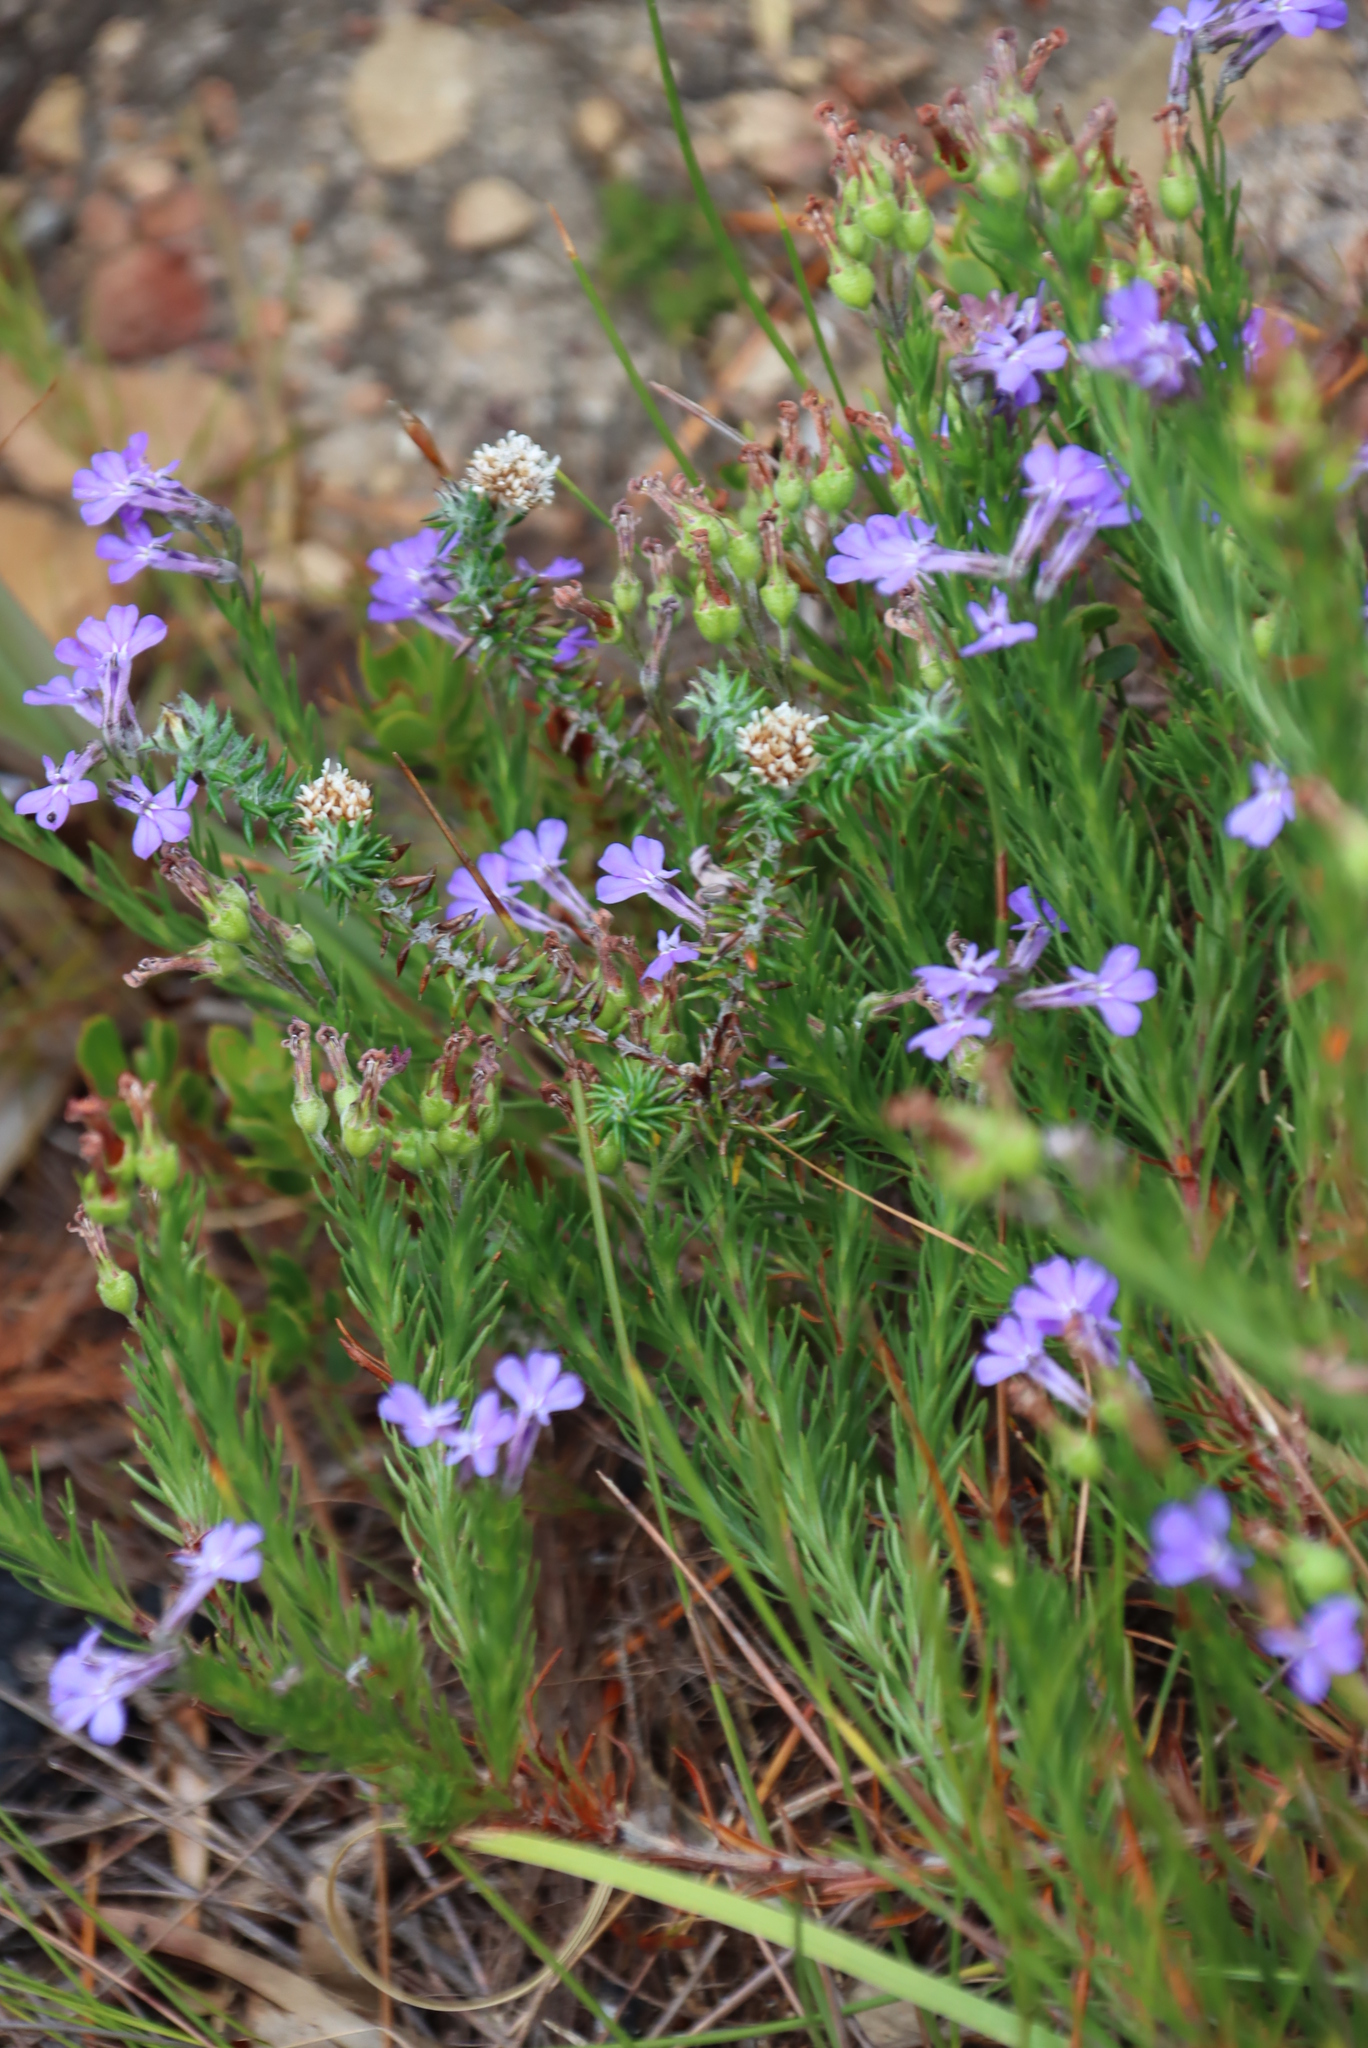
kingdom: Plantae
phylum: Tracheophyta
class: Magnoliopsida
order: Asterales
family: Campanulaceae
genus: Lobelia
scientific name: Lobelia pinifolia
